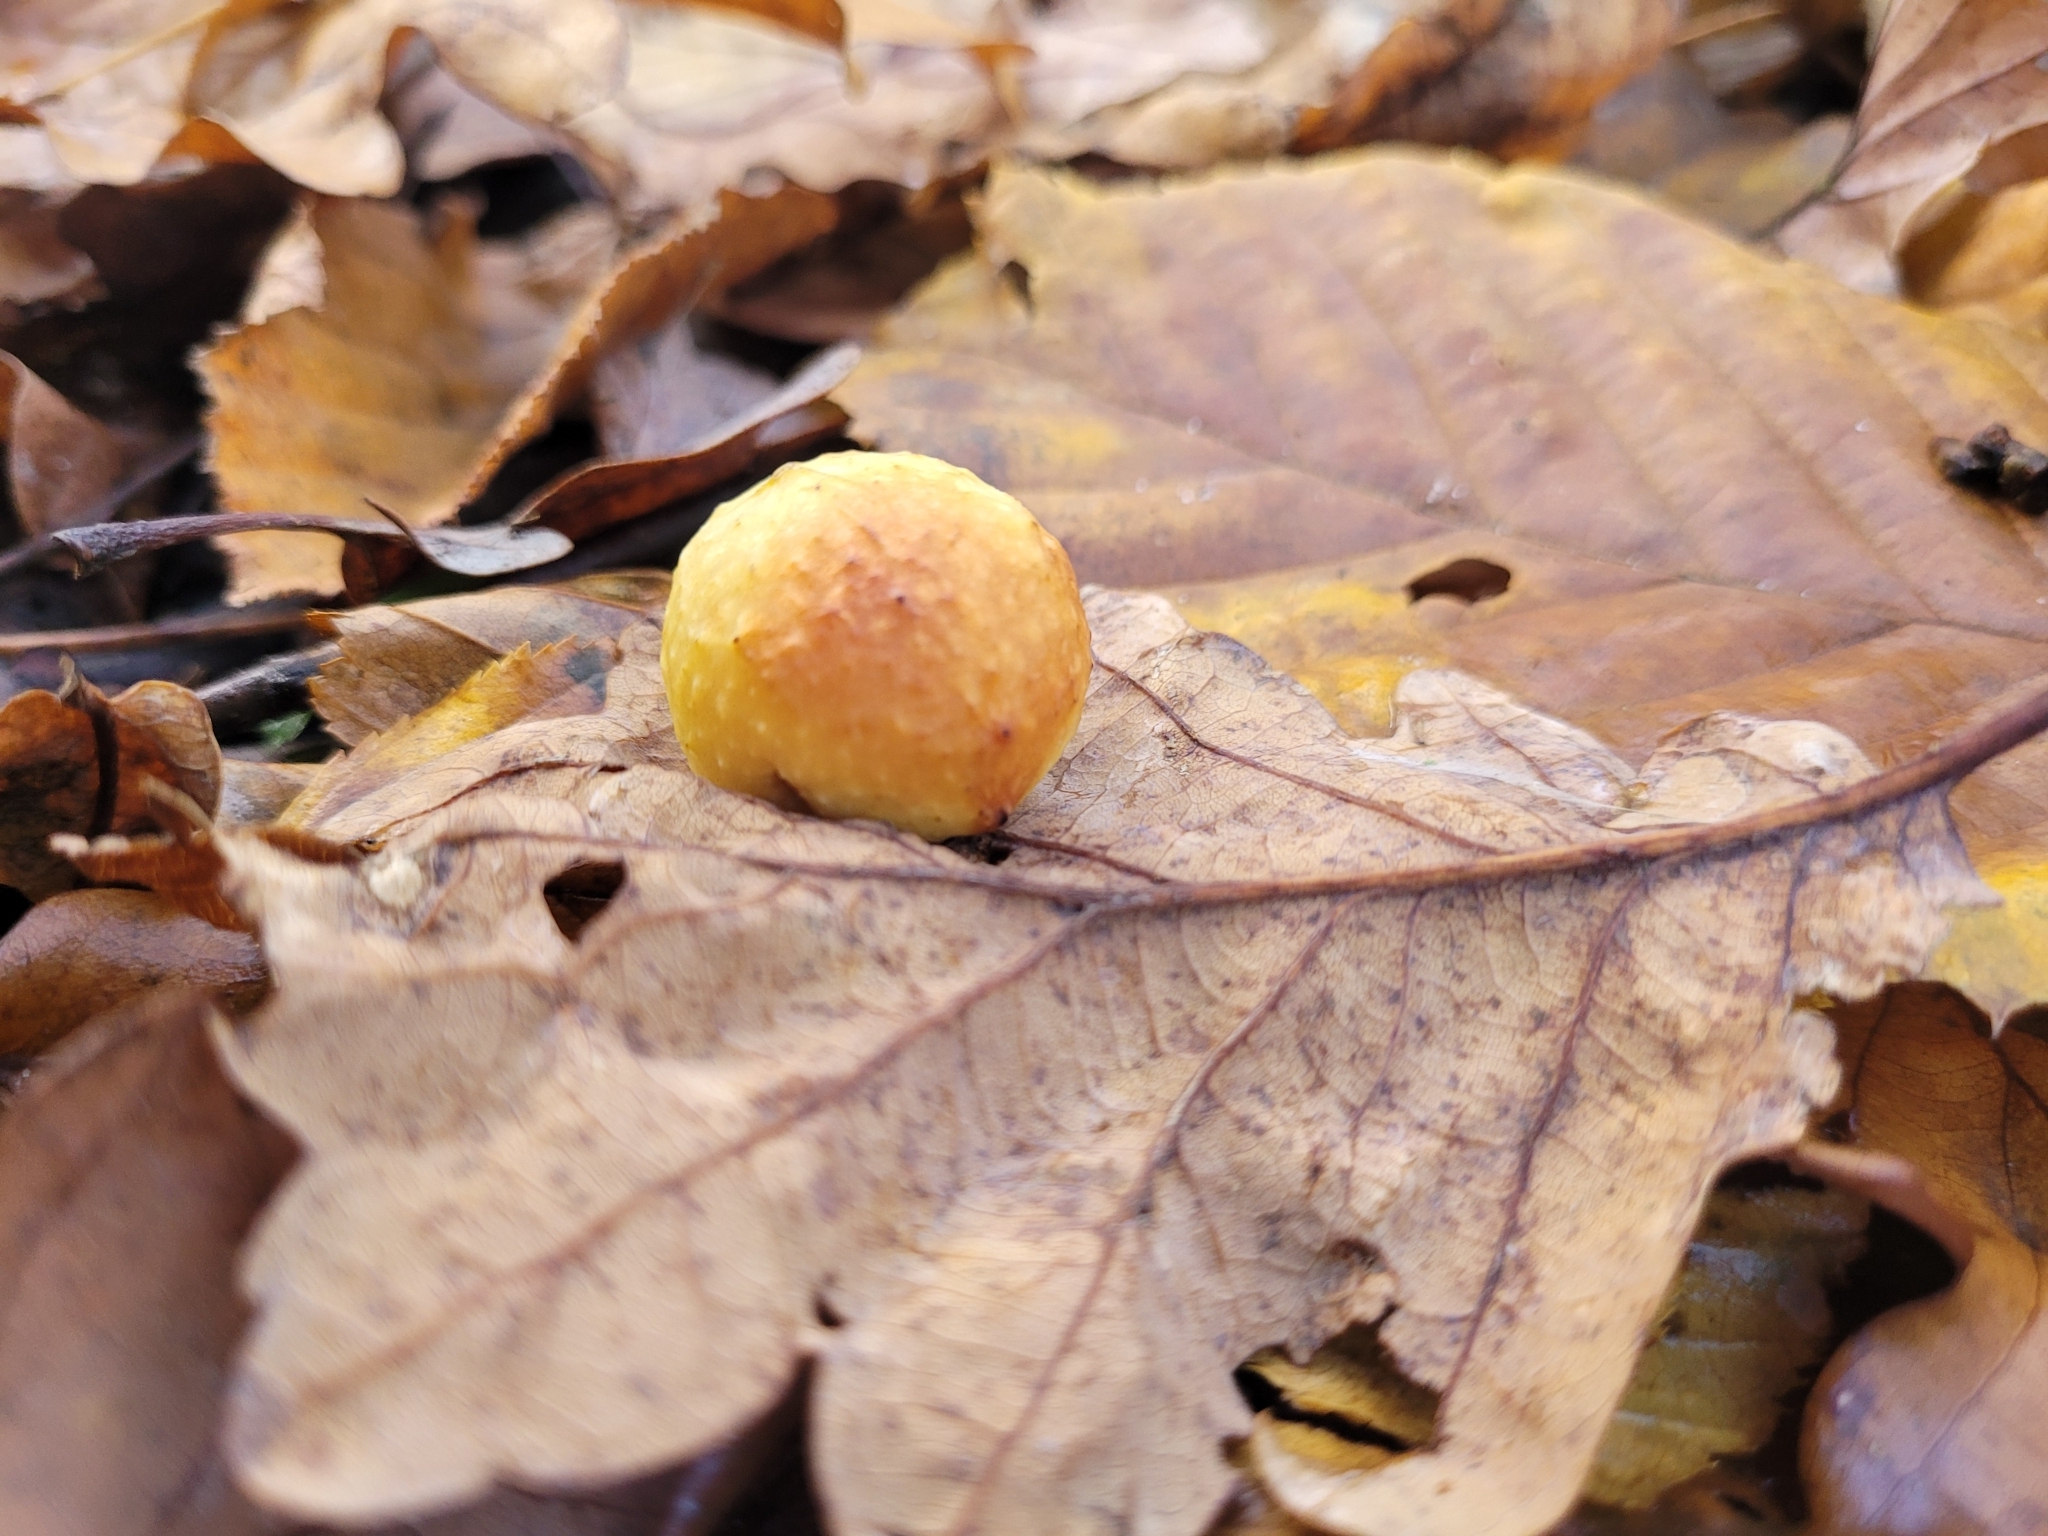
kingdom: Animalia
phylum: Arthropoda
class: Insecta
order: Hymenoptera
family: Cynipidae
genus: Cynips
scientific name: Cynips quercusfolii
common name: Cherry gall
